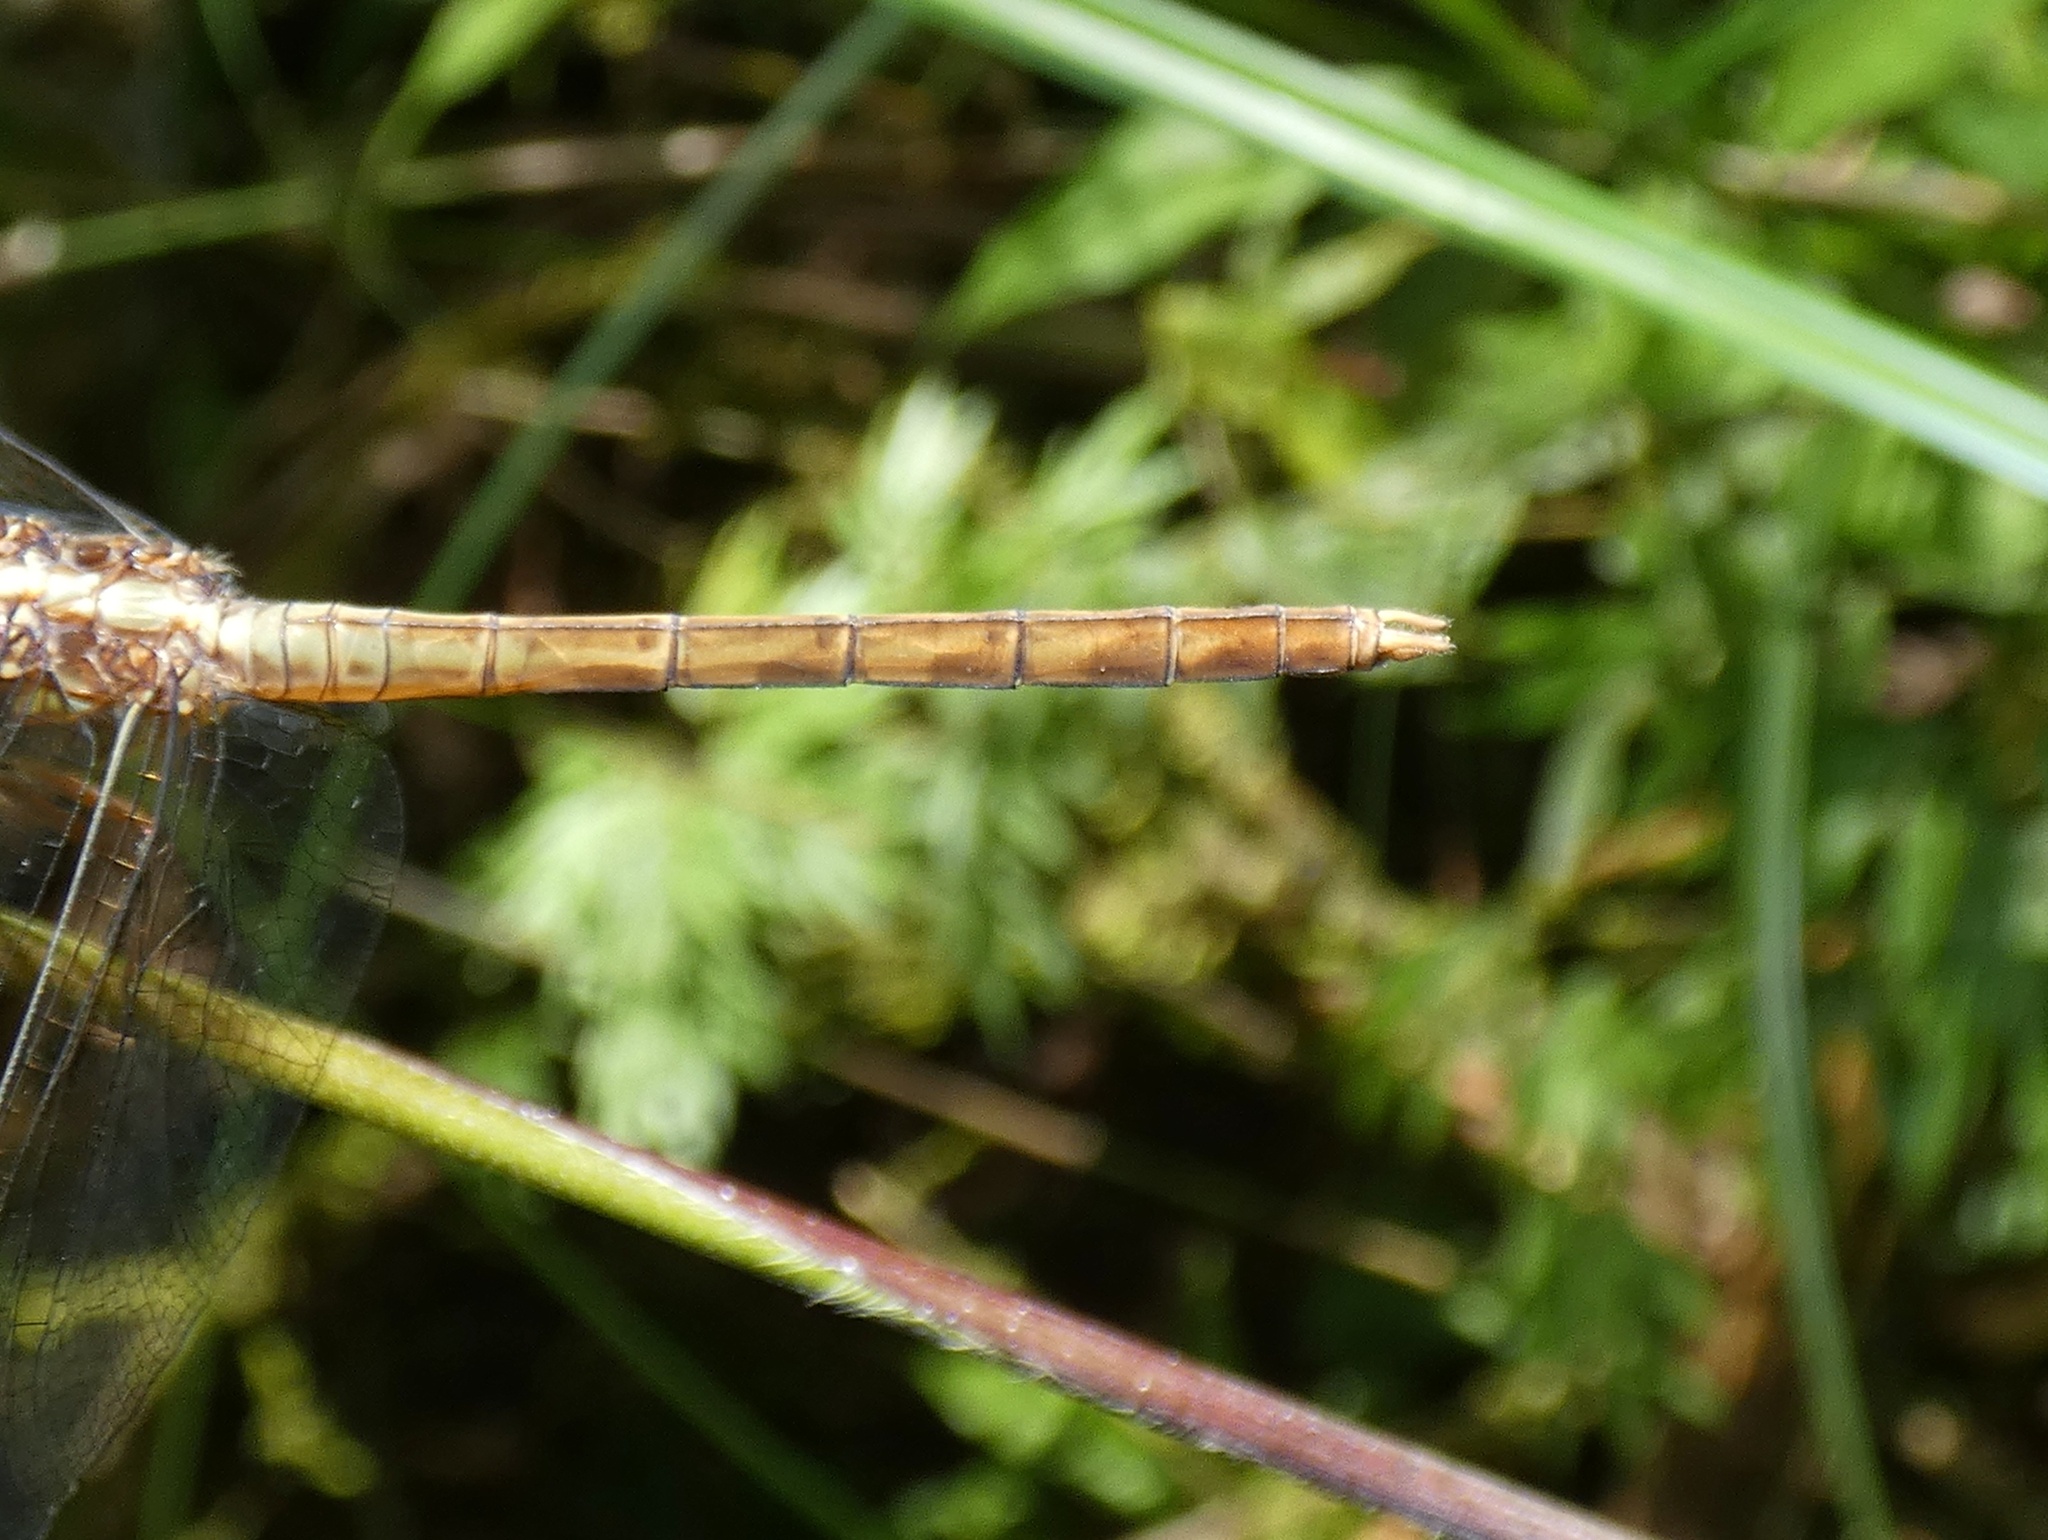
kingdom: Animalia
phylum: Arthropoda
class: Insecta
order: Odonata
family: Libellulidae
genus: Erythrodiplax
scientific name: Erythrodiplax funerea
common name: Black-winged dragonlet
